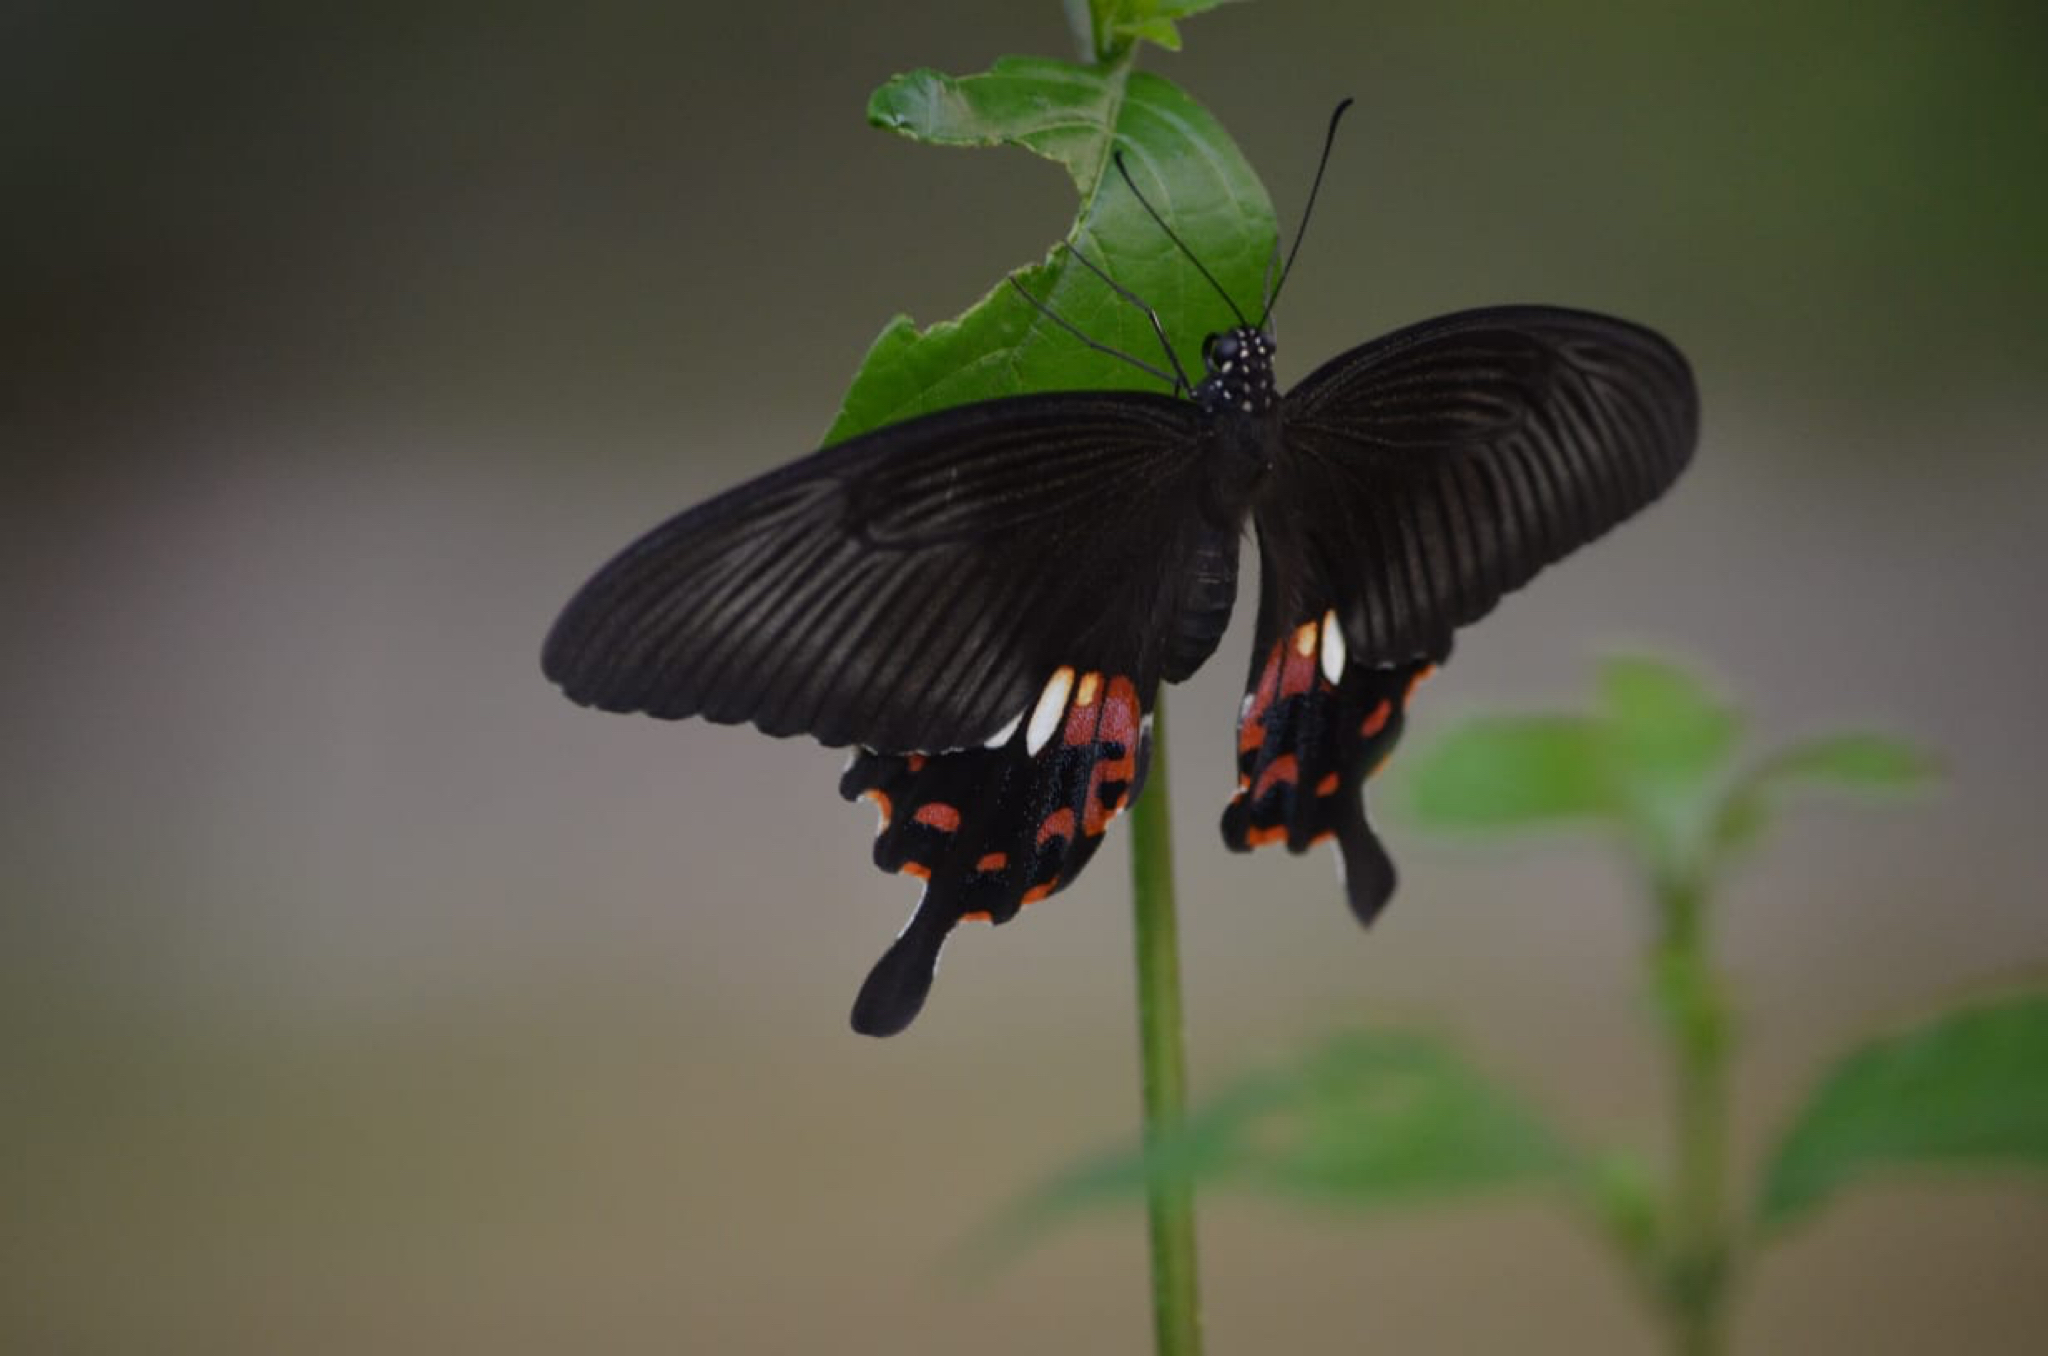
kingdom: Animalia
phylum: Arthropoda
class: Insecta
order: Lepidoptera
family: Papilionidae
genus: Papilio
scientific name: Papilio polytes
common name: Common mormon
